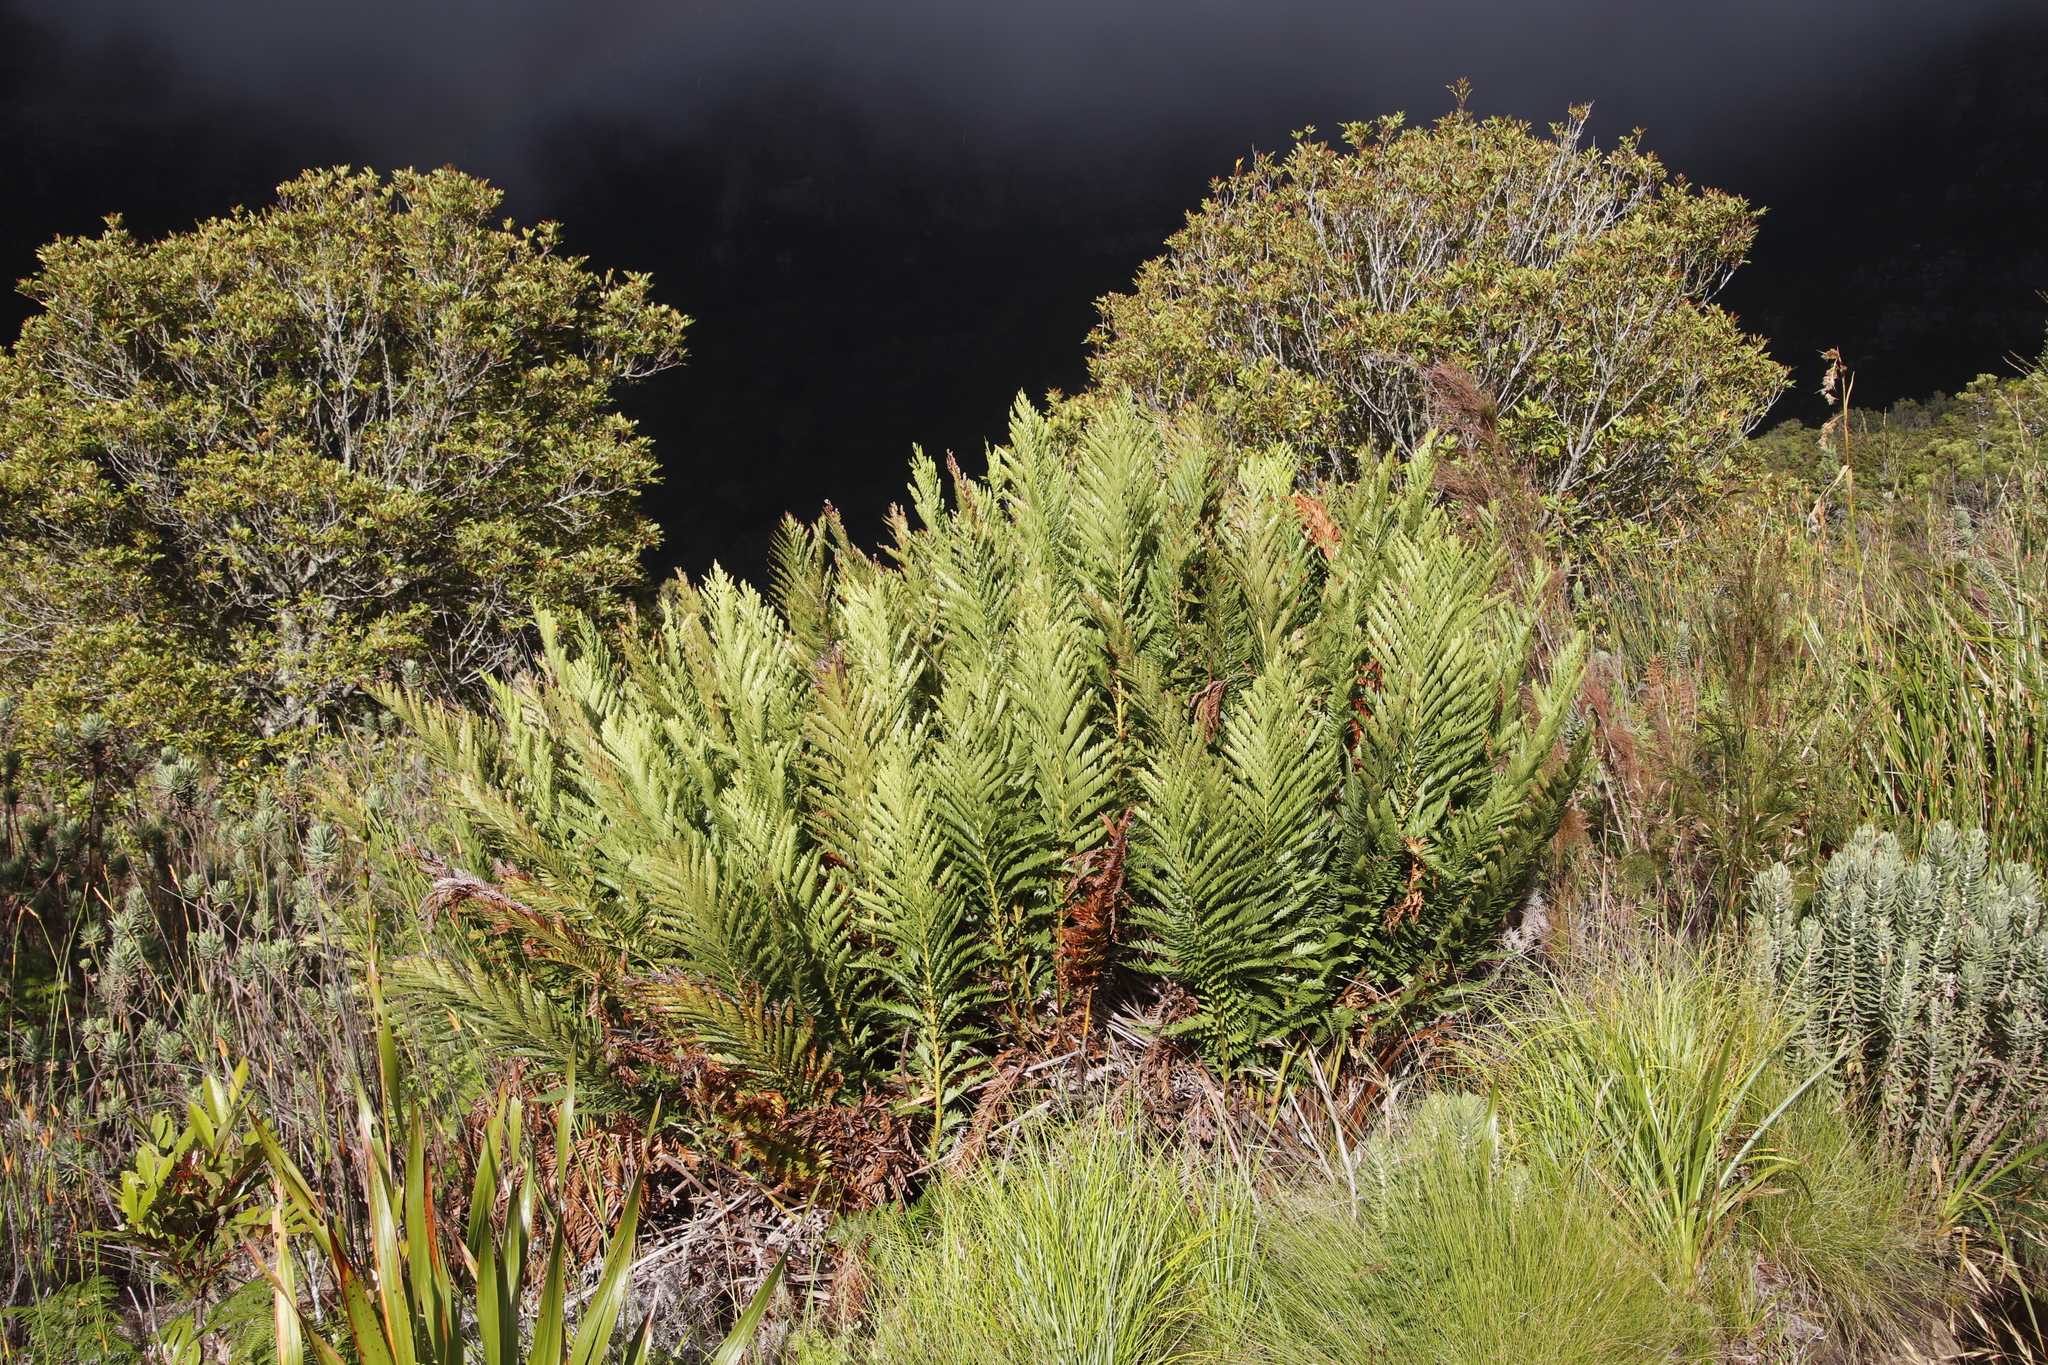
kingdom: Plantae
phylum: Tracheophyta
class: Polypodiopsida
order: Osmundales
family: Osmundaceae
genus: Todea
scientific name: Todea barbara
